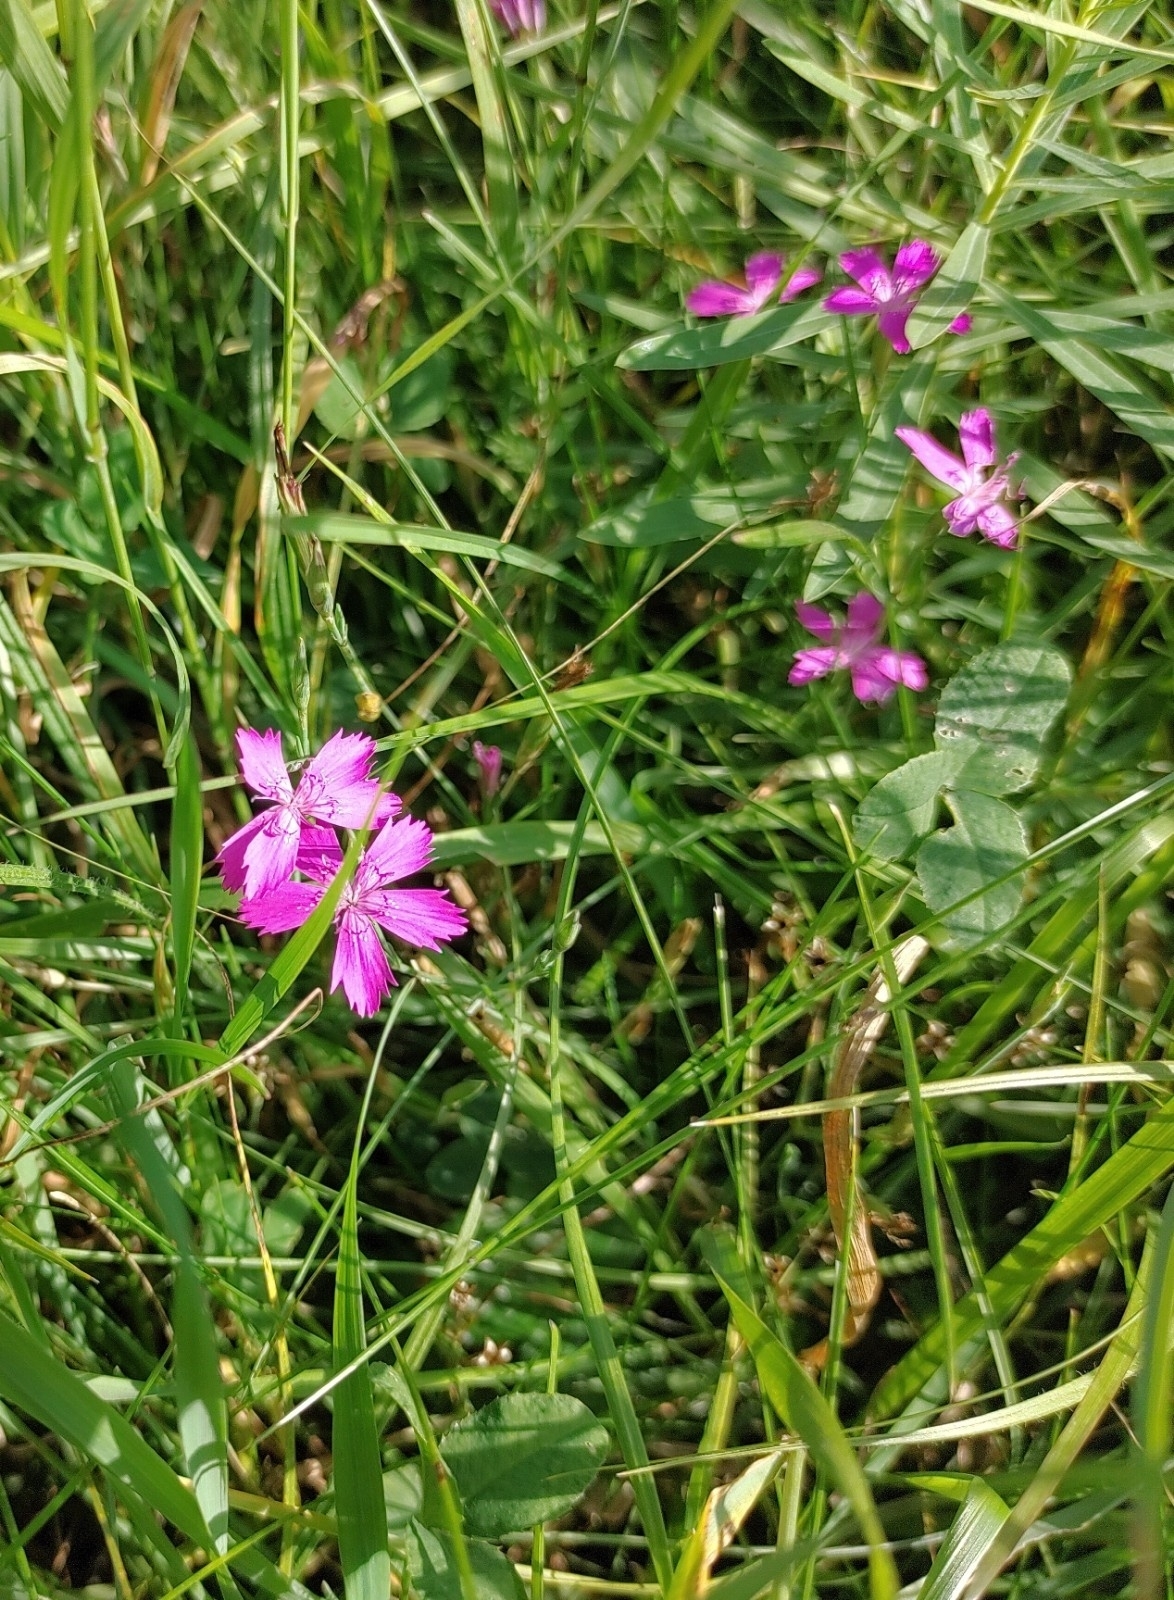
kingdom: Plantae
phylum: Tracheophyta
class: Magnoliopsida
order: Caryophyllales
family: Caryophyllaceae
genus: Dianthus
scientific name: Dianthus deltoides
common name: Maiden pink
